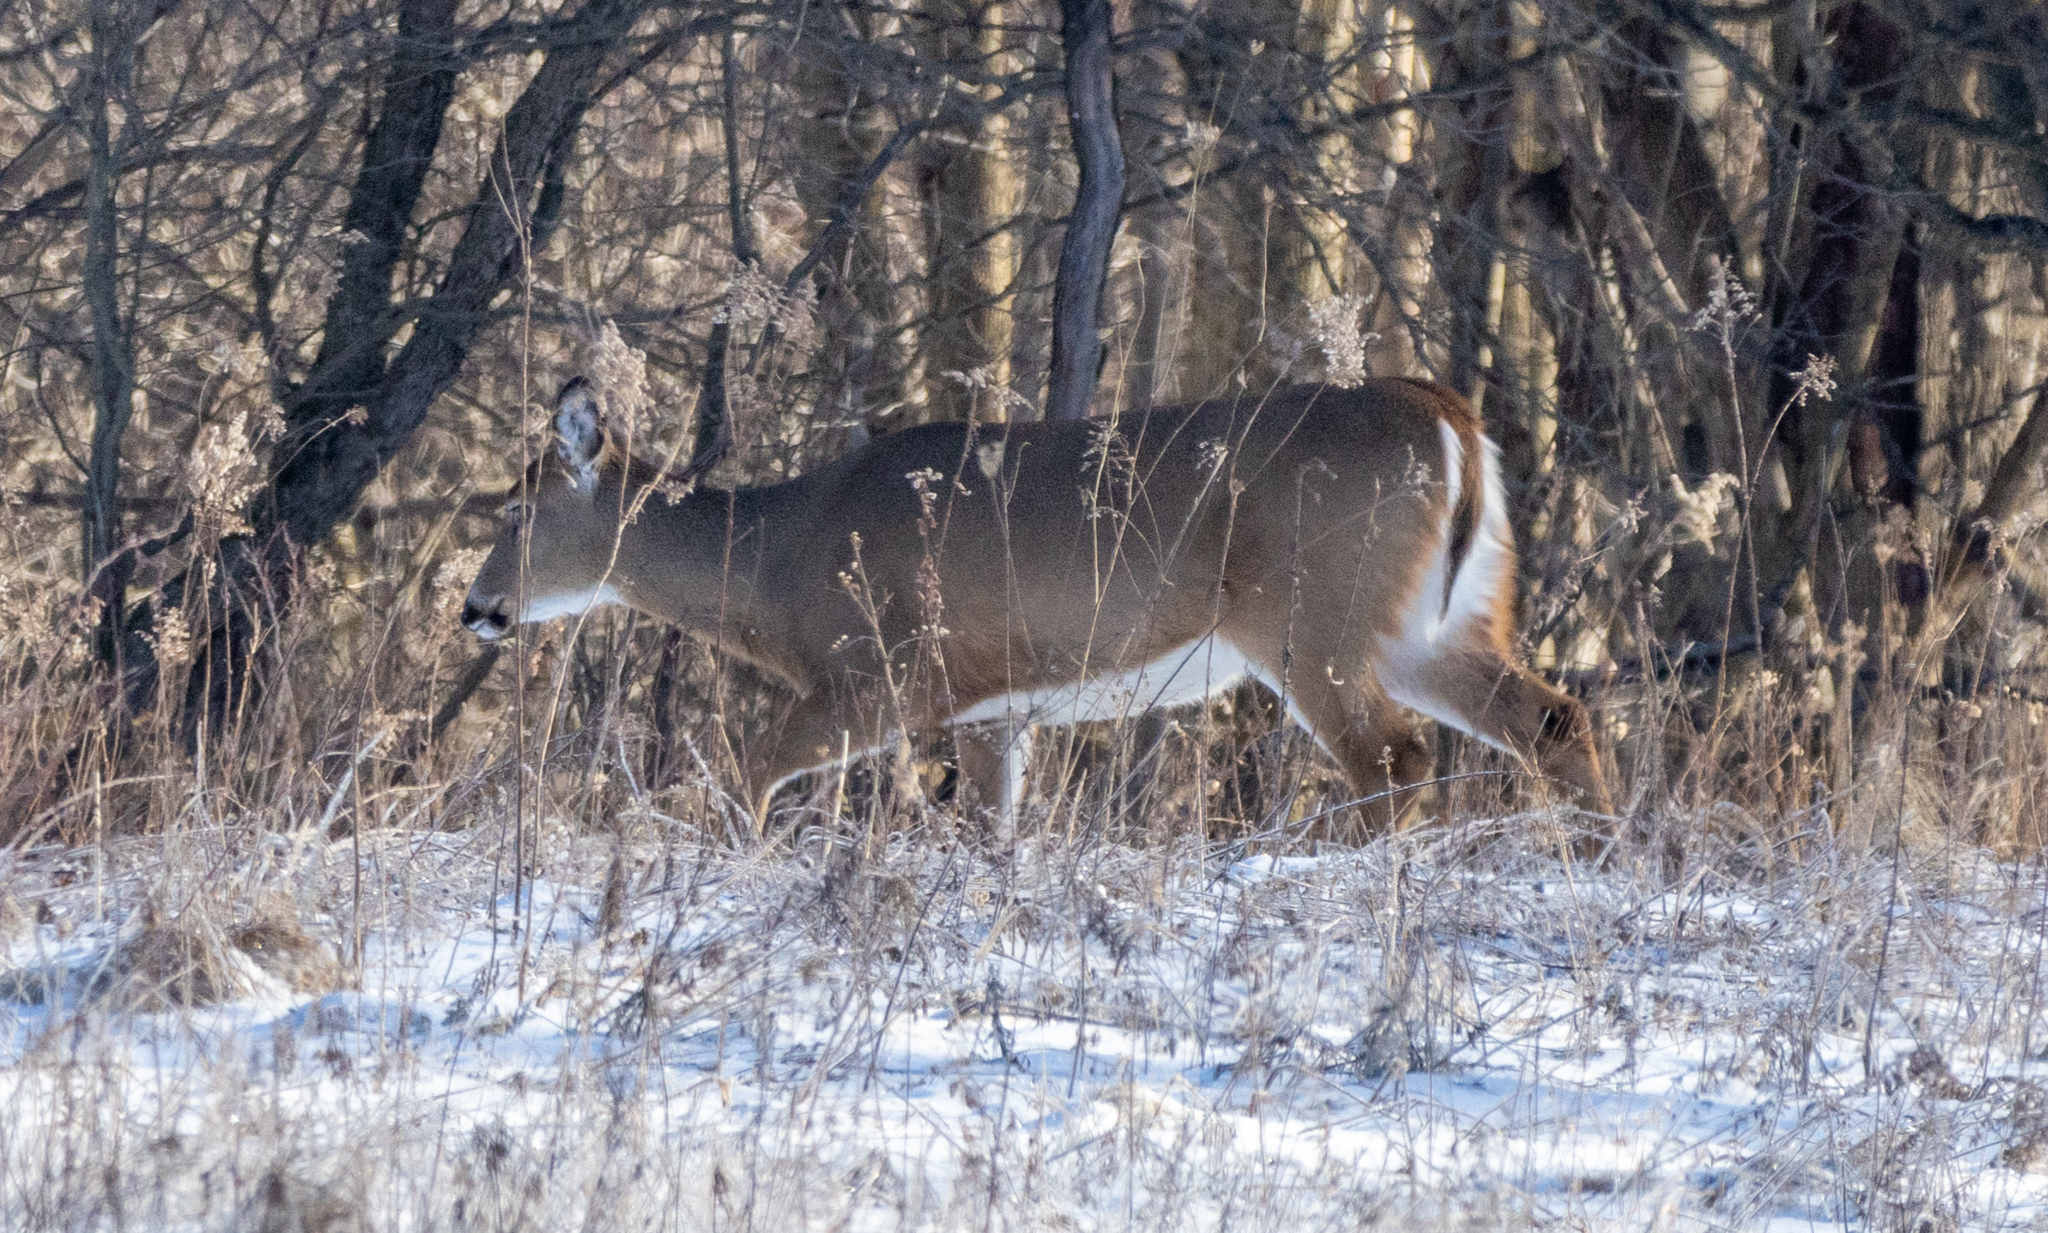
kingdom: Animalia
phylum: Chordata
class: Mammalia
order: Artiodactyla
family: Cervidae
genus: Odocoileus
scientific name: Odocoileus virginianus
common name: White-tailed deer
